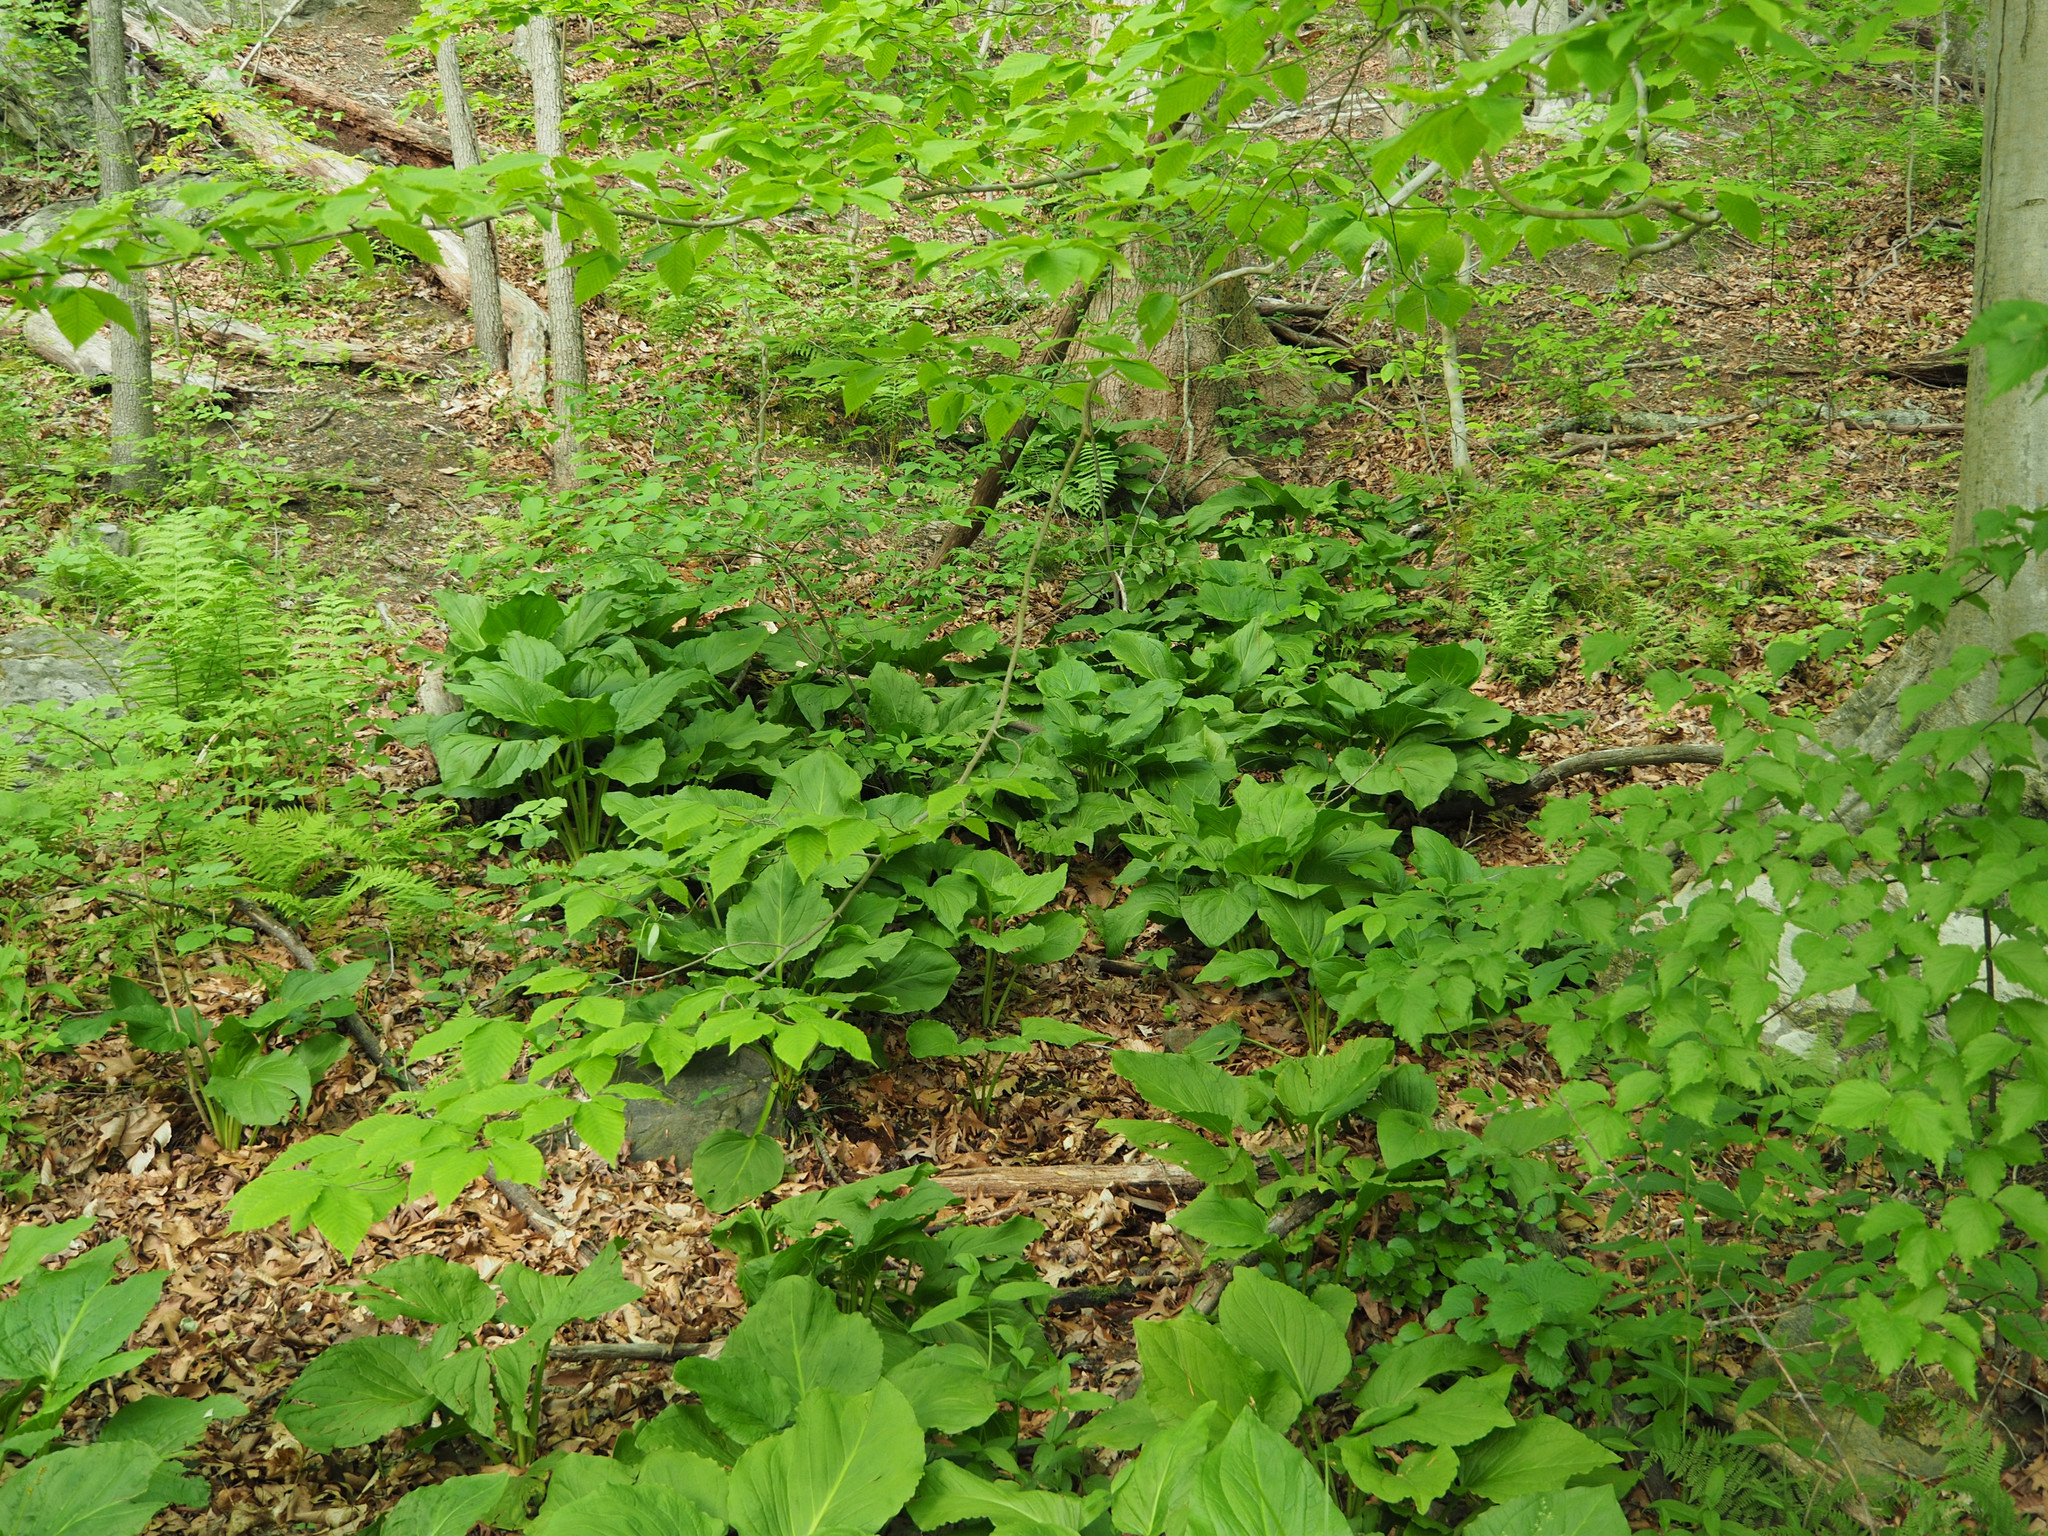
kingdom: Plantae
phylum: Tracheophyta
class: Liliopsida
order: Alismatales
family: Araceae
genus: Symplocarpus
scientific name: Symplocarpus foetidus
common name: Eastern skunk cabbage
